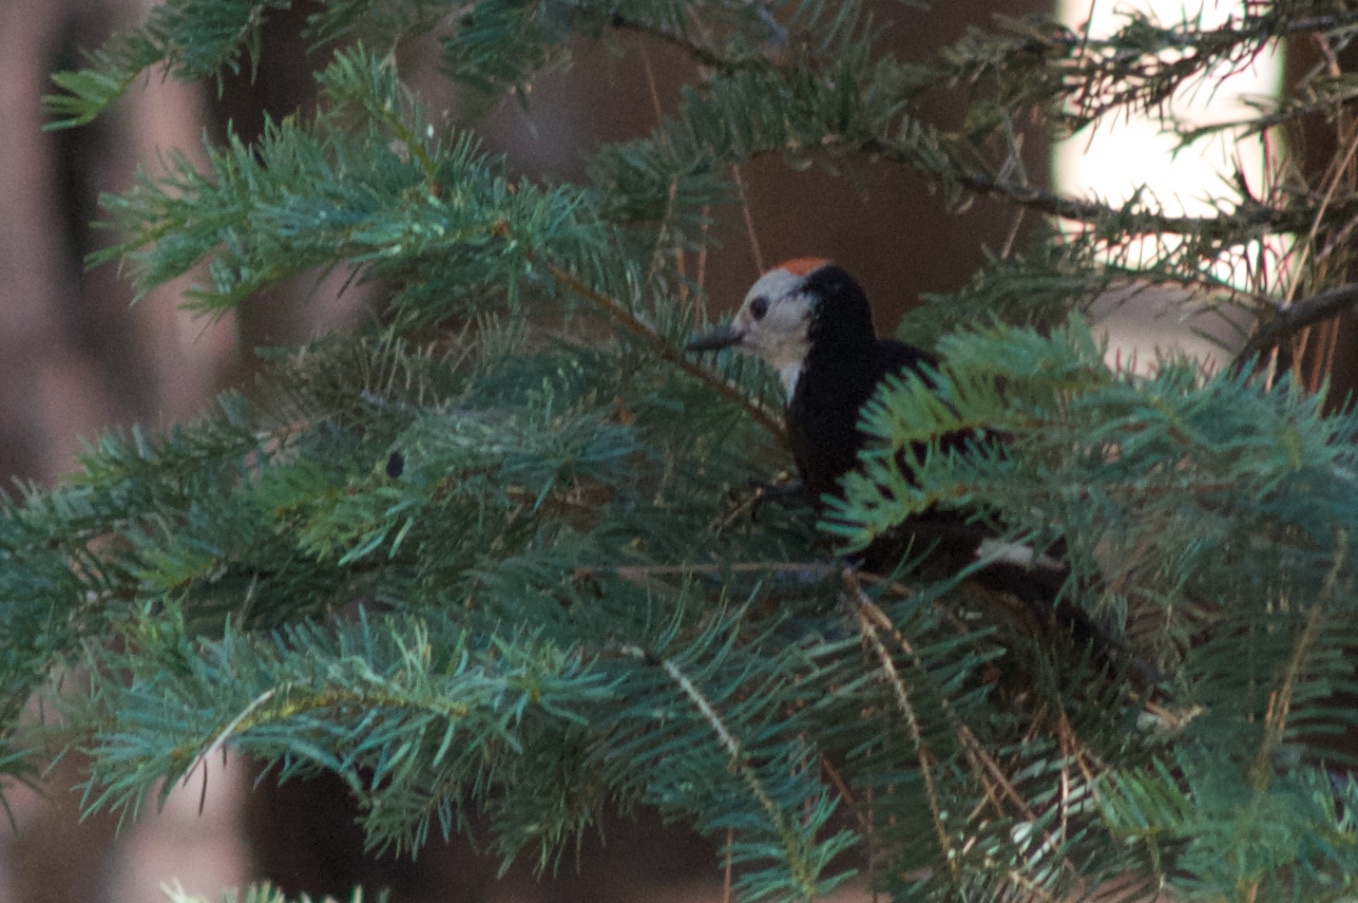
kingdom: Animalia
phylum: Chordata
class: Aves
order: Piciformes
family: Picidae
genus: Leuconotopicus
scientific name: Leuconotopicus albolarvatus
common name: White-headed woodpecker
